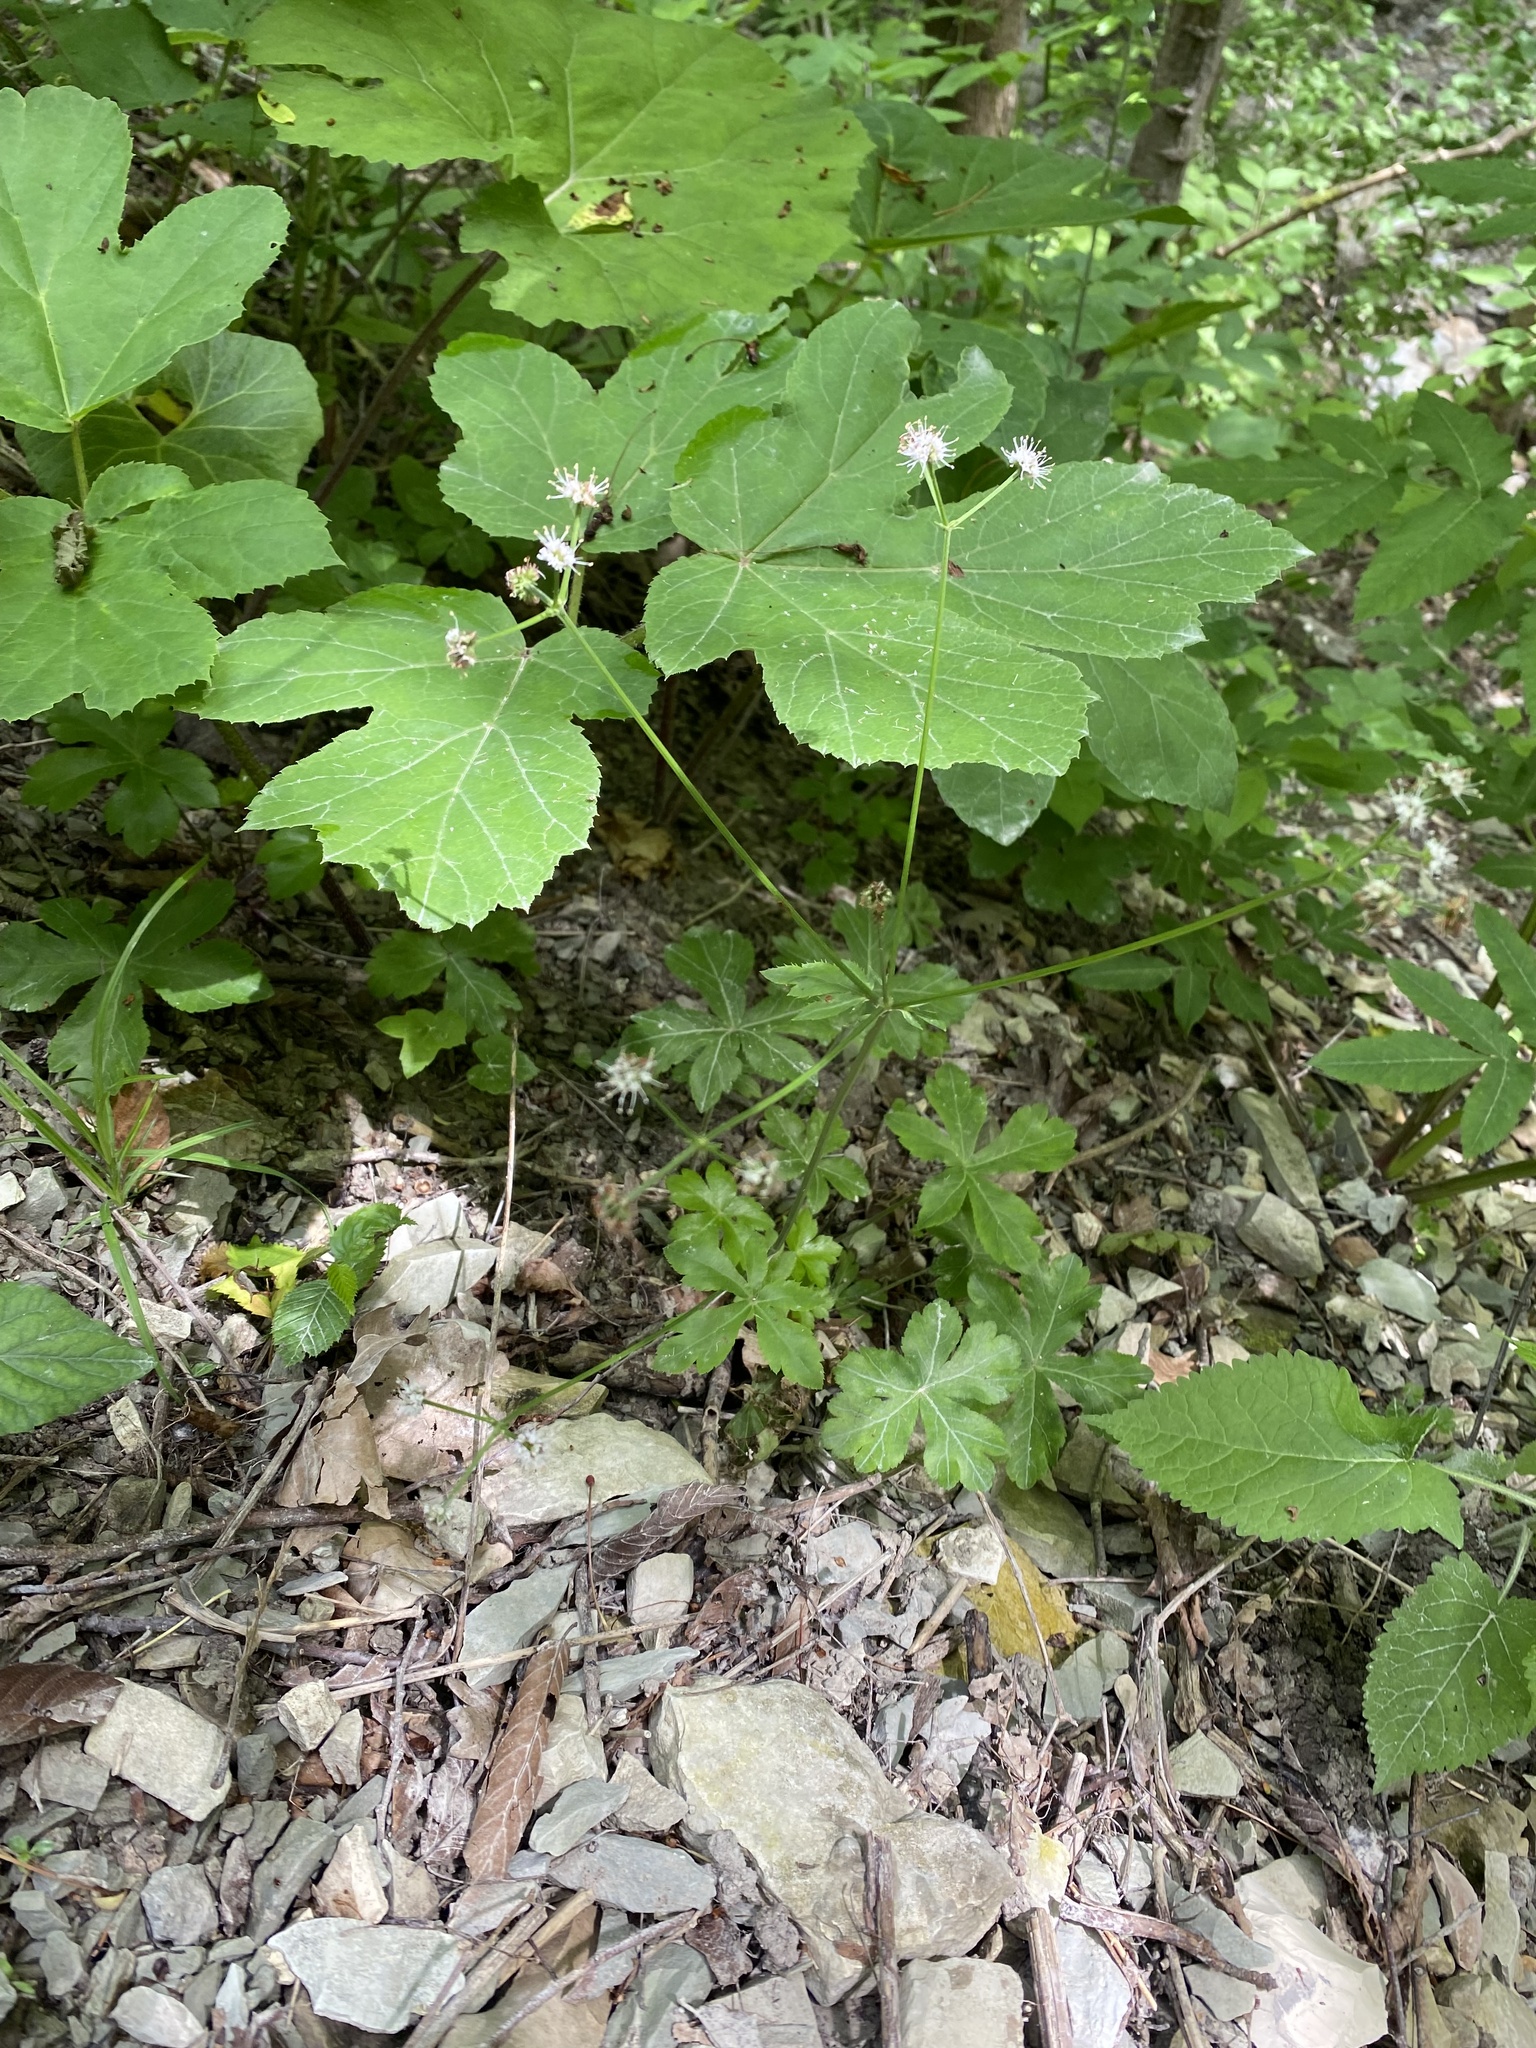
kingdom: Plantae
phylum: Tracheophyta
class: Magnoliopsida
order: Apiales
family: Apiaceae
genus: Sanicula
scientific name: Sanicula europaea
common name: Sanicle
